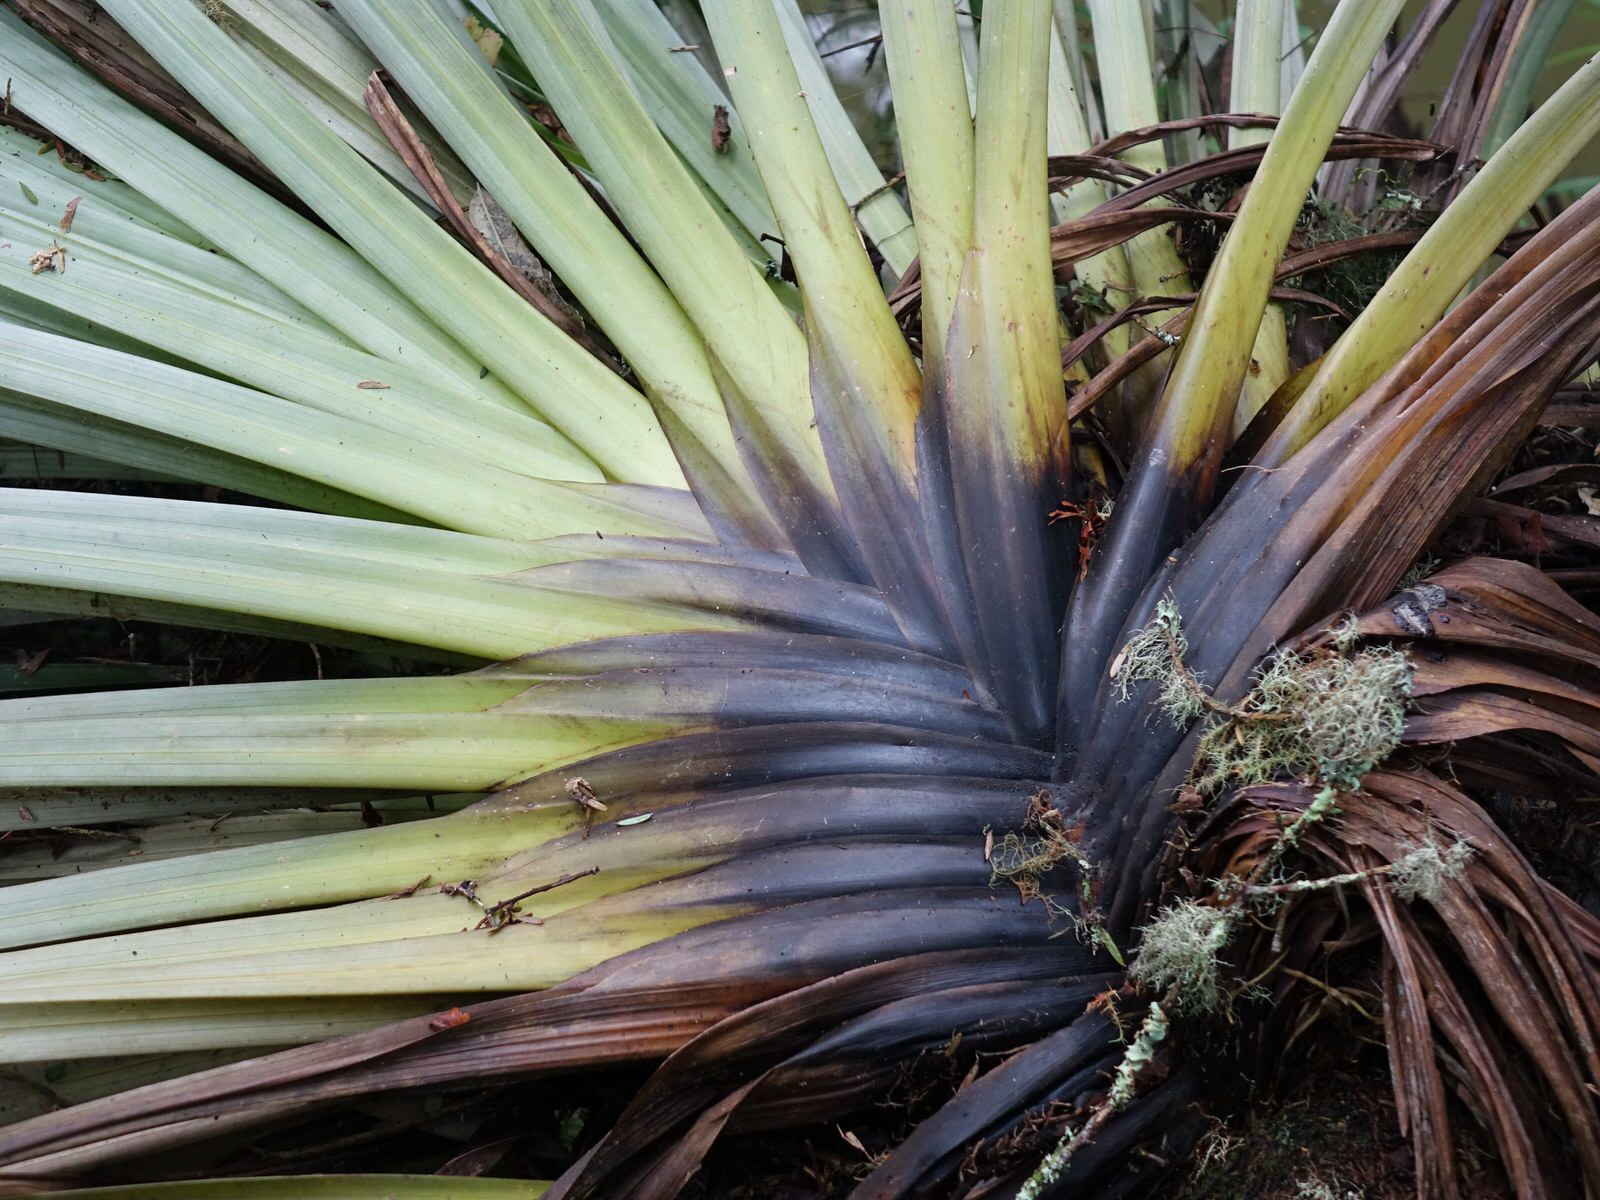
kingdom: Plantae
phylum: Tracheophyta
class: Liliopsida
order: Asparagales
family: Asteliaceae
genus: Astelia
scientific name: Astelia hastata
